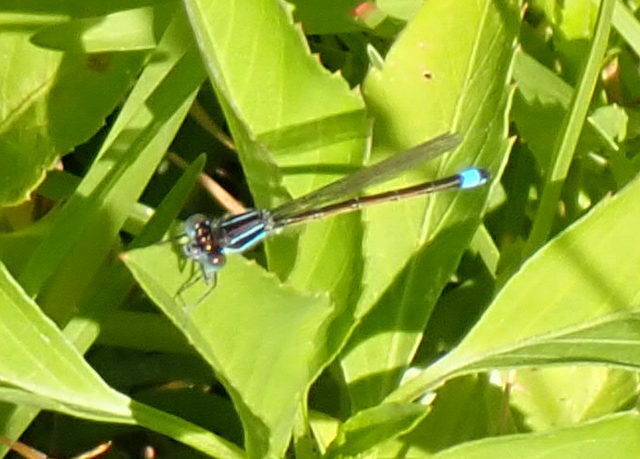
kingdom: Animalia
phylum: Arthropoda
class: Insecta
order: Odonata
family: Coenagrionidae
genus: Ischnura
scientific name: Ischnura ramburii
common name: Rambur's forktail
